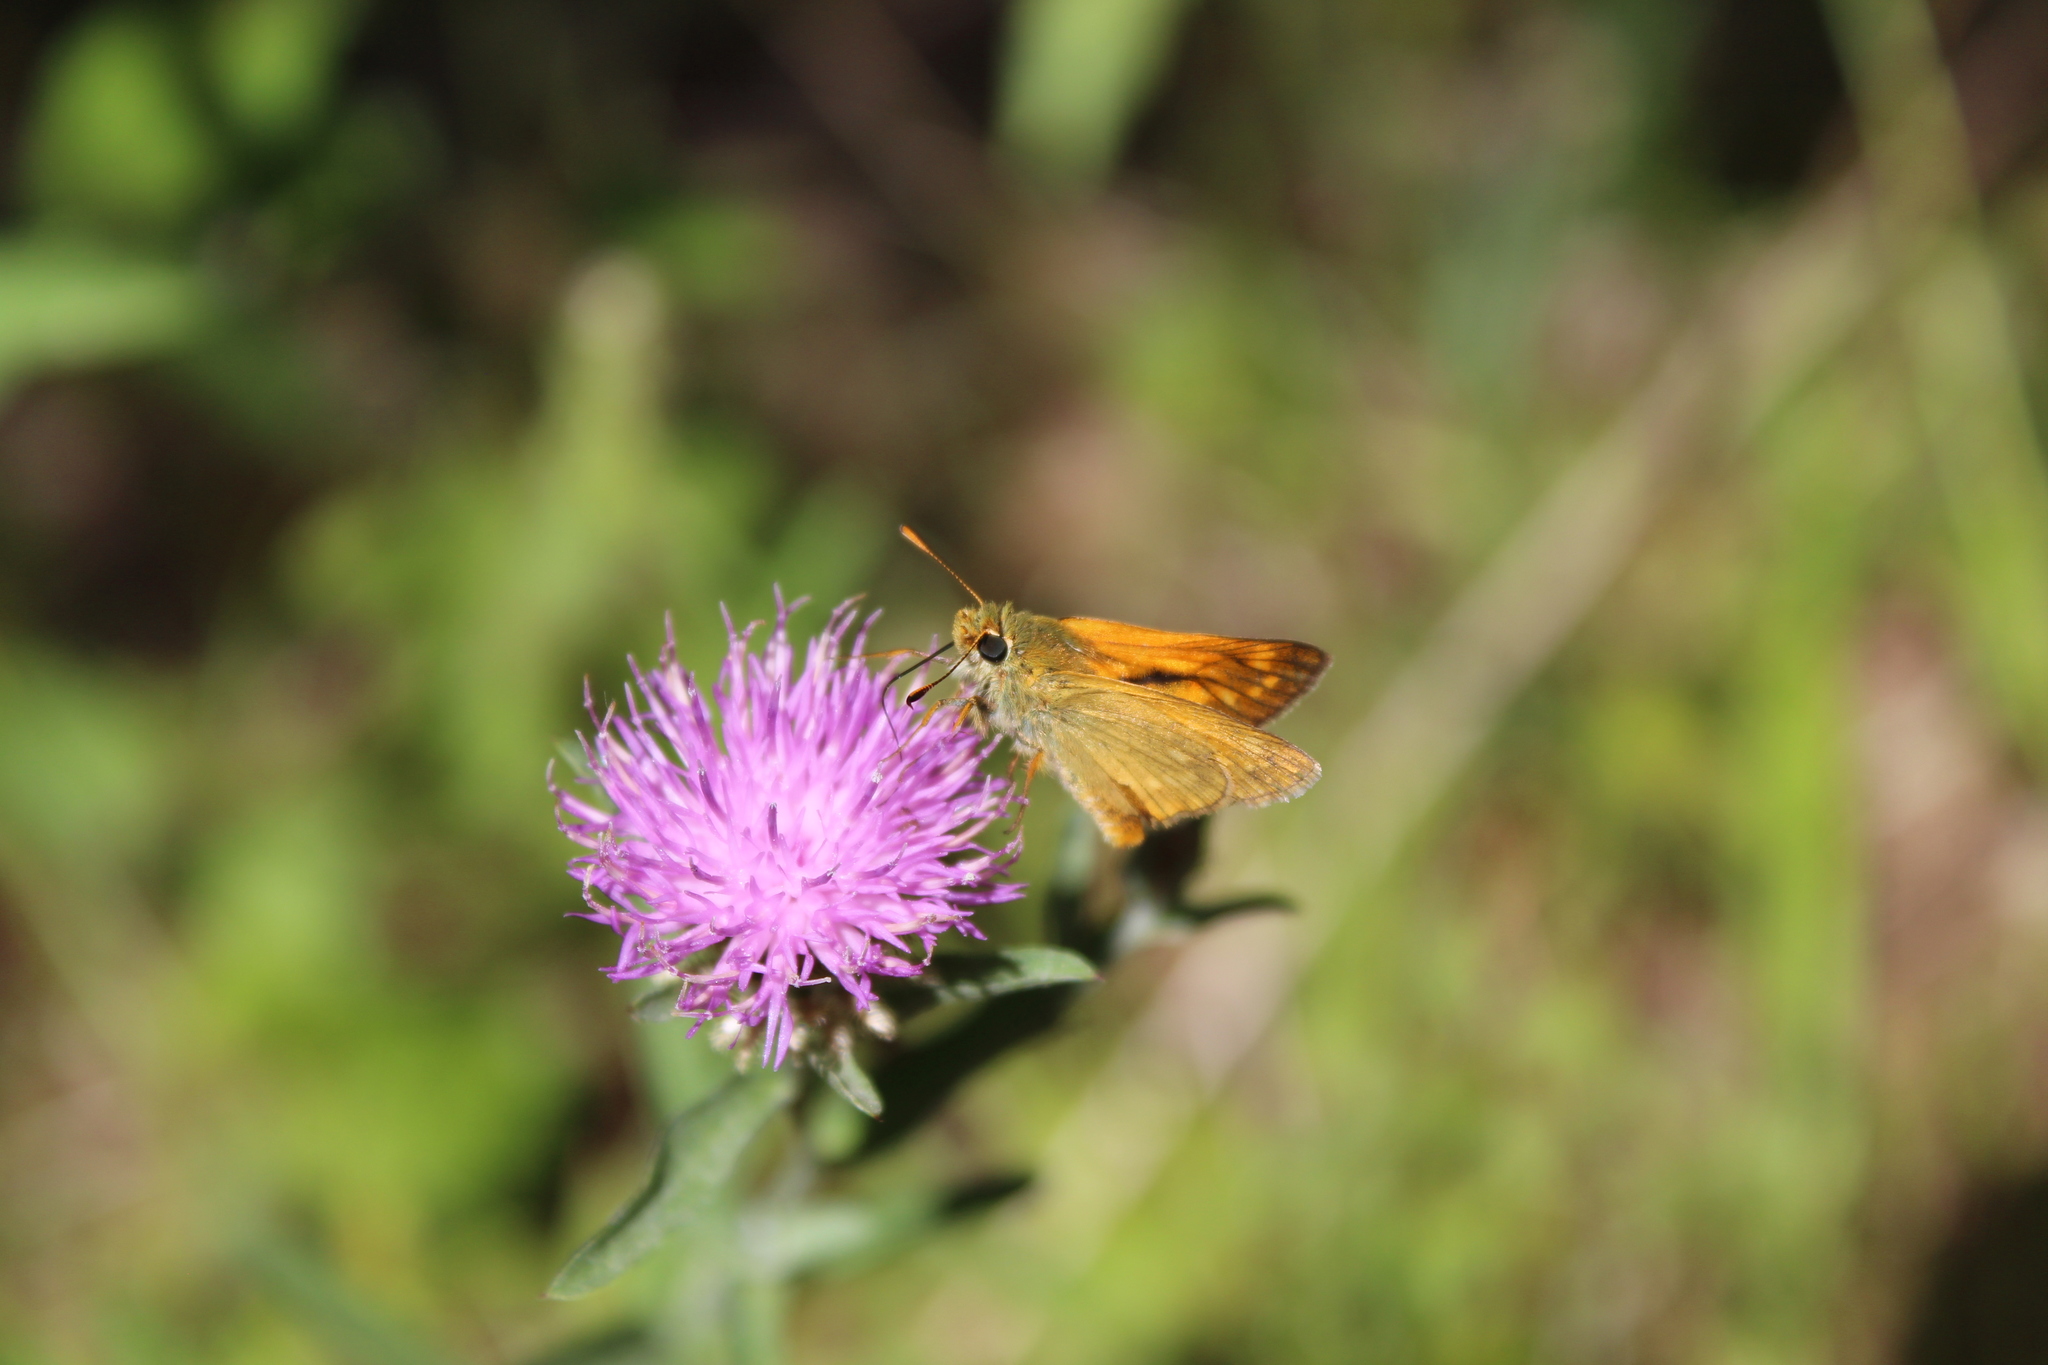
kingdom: Animalia
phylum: Arthropoda
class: Insecta
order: Lepidoptera
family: Hesperiidae
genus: Ochlodes
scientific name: Ochlodes venata
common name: Large skipper
